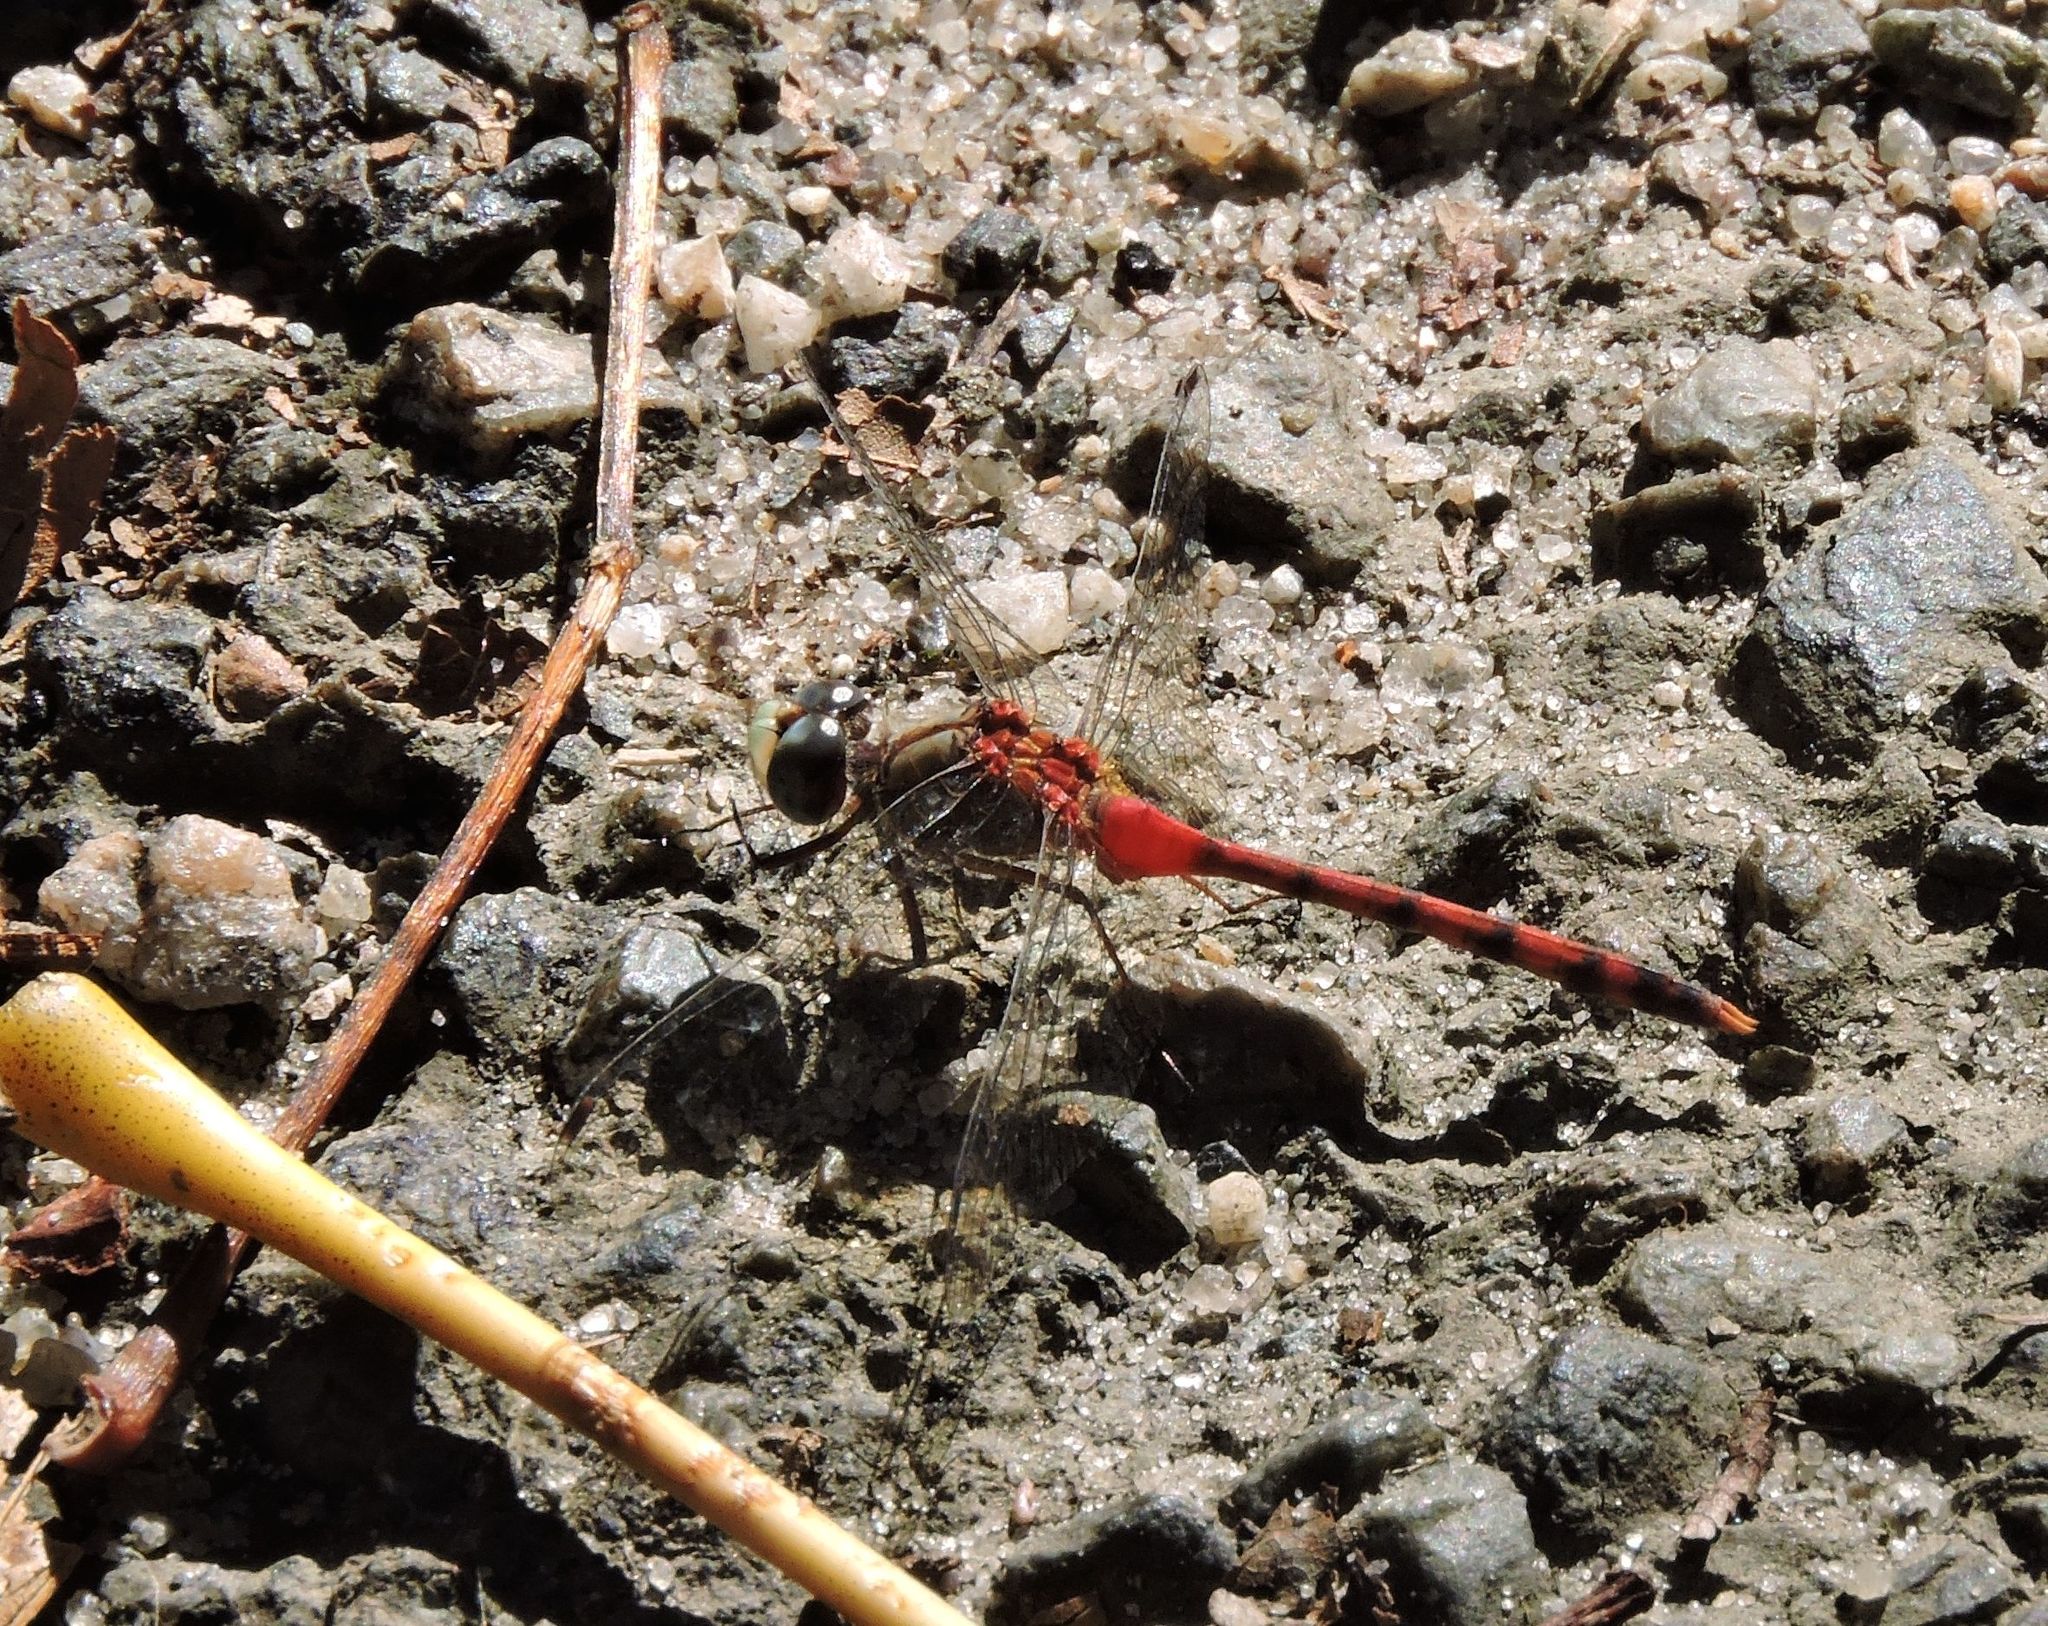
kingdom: Animalia
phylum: Arthropoda
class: Insecta
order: Odonata
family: Libellulidae
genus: Sympetrum
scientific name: Sympetrum ambiguum
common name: Blue-faced meadowhawk
